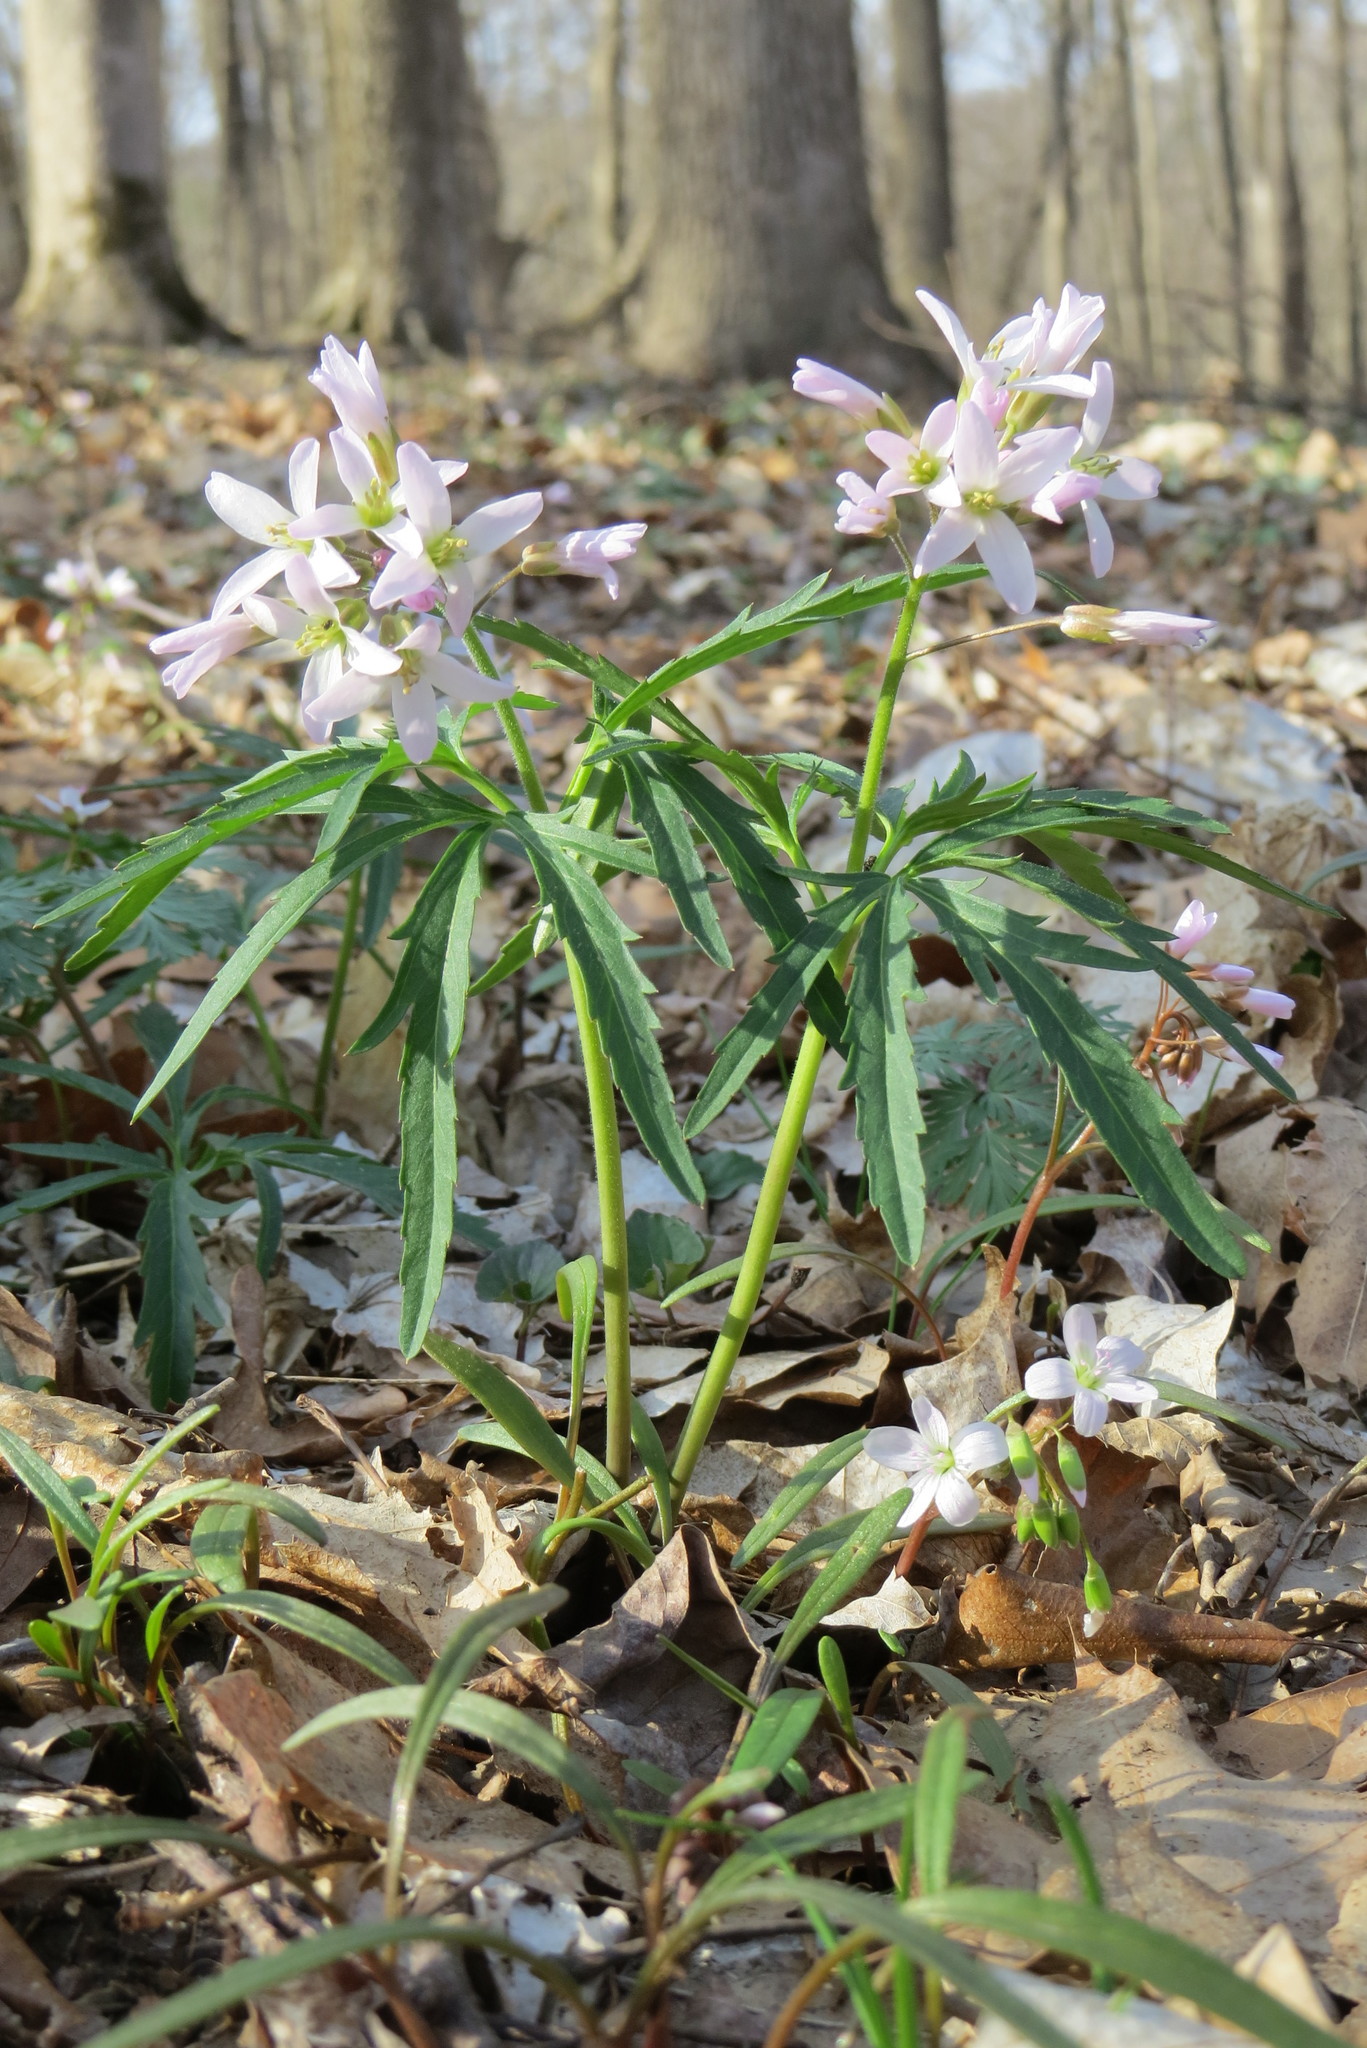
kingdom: Plantae
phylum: Tracheophyta
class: Magnoliopsida
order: Brassicales
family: Brassicaceae
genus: Cardamine
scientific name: Cardamine concatenata
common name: Cut-leaf toothcup
